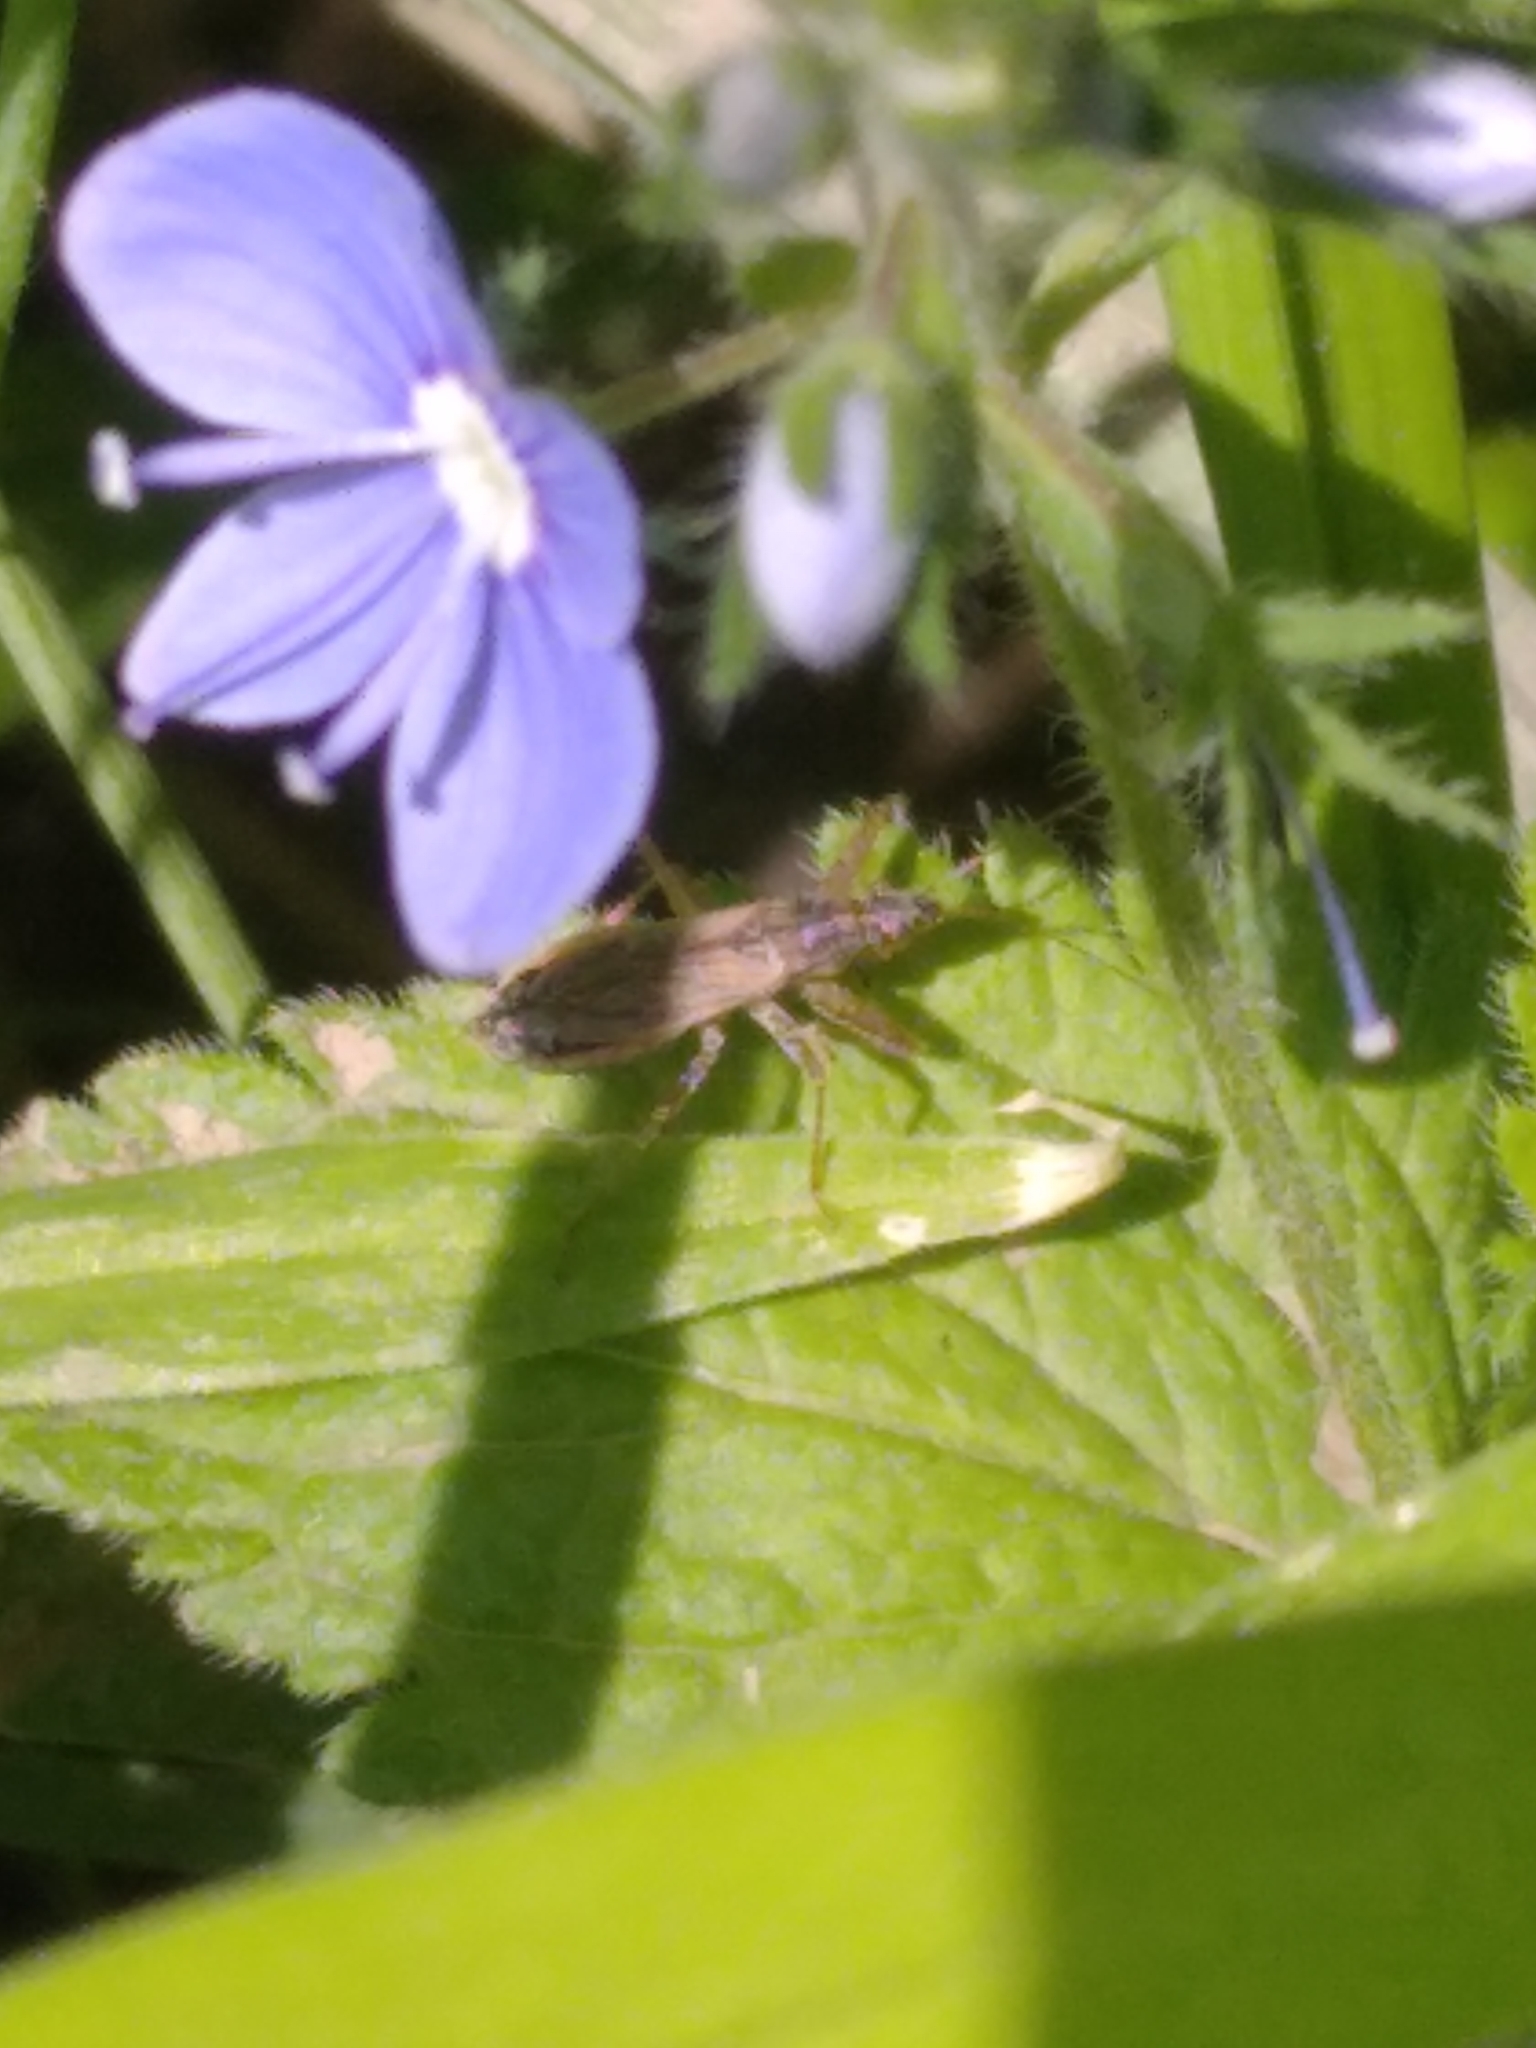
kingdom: Animalia
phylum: Arthropoda
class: Insecta
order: Hemiptera
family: Nabidae
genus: Nabis
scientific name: Nabis
